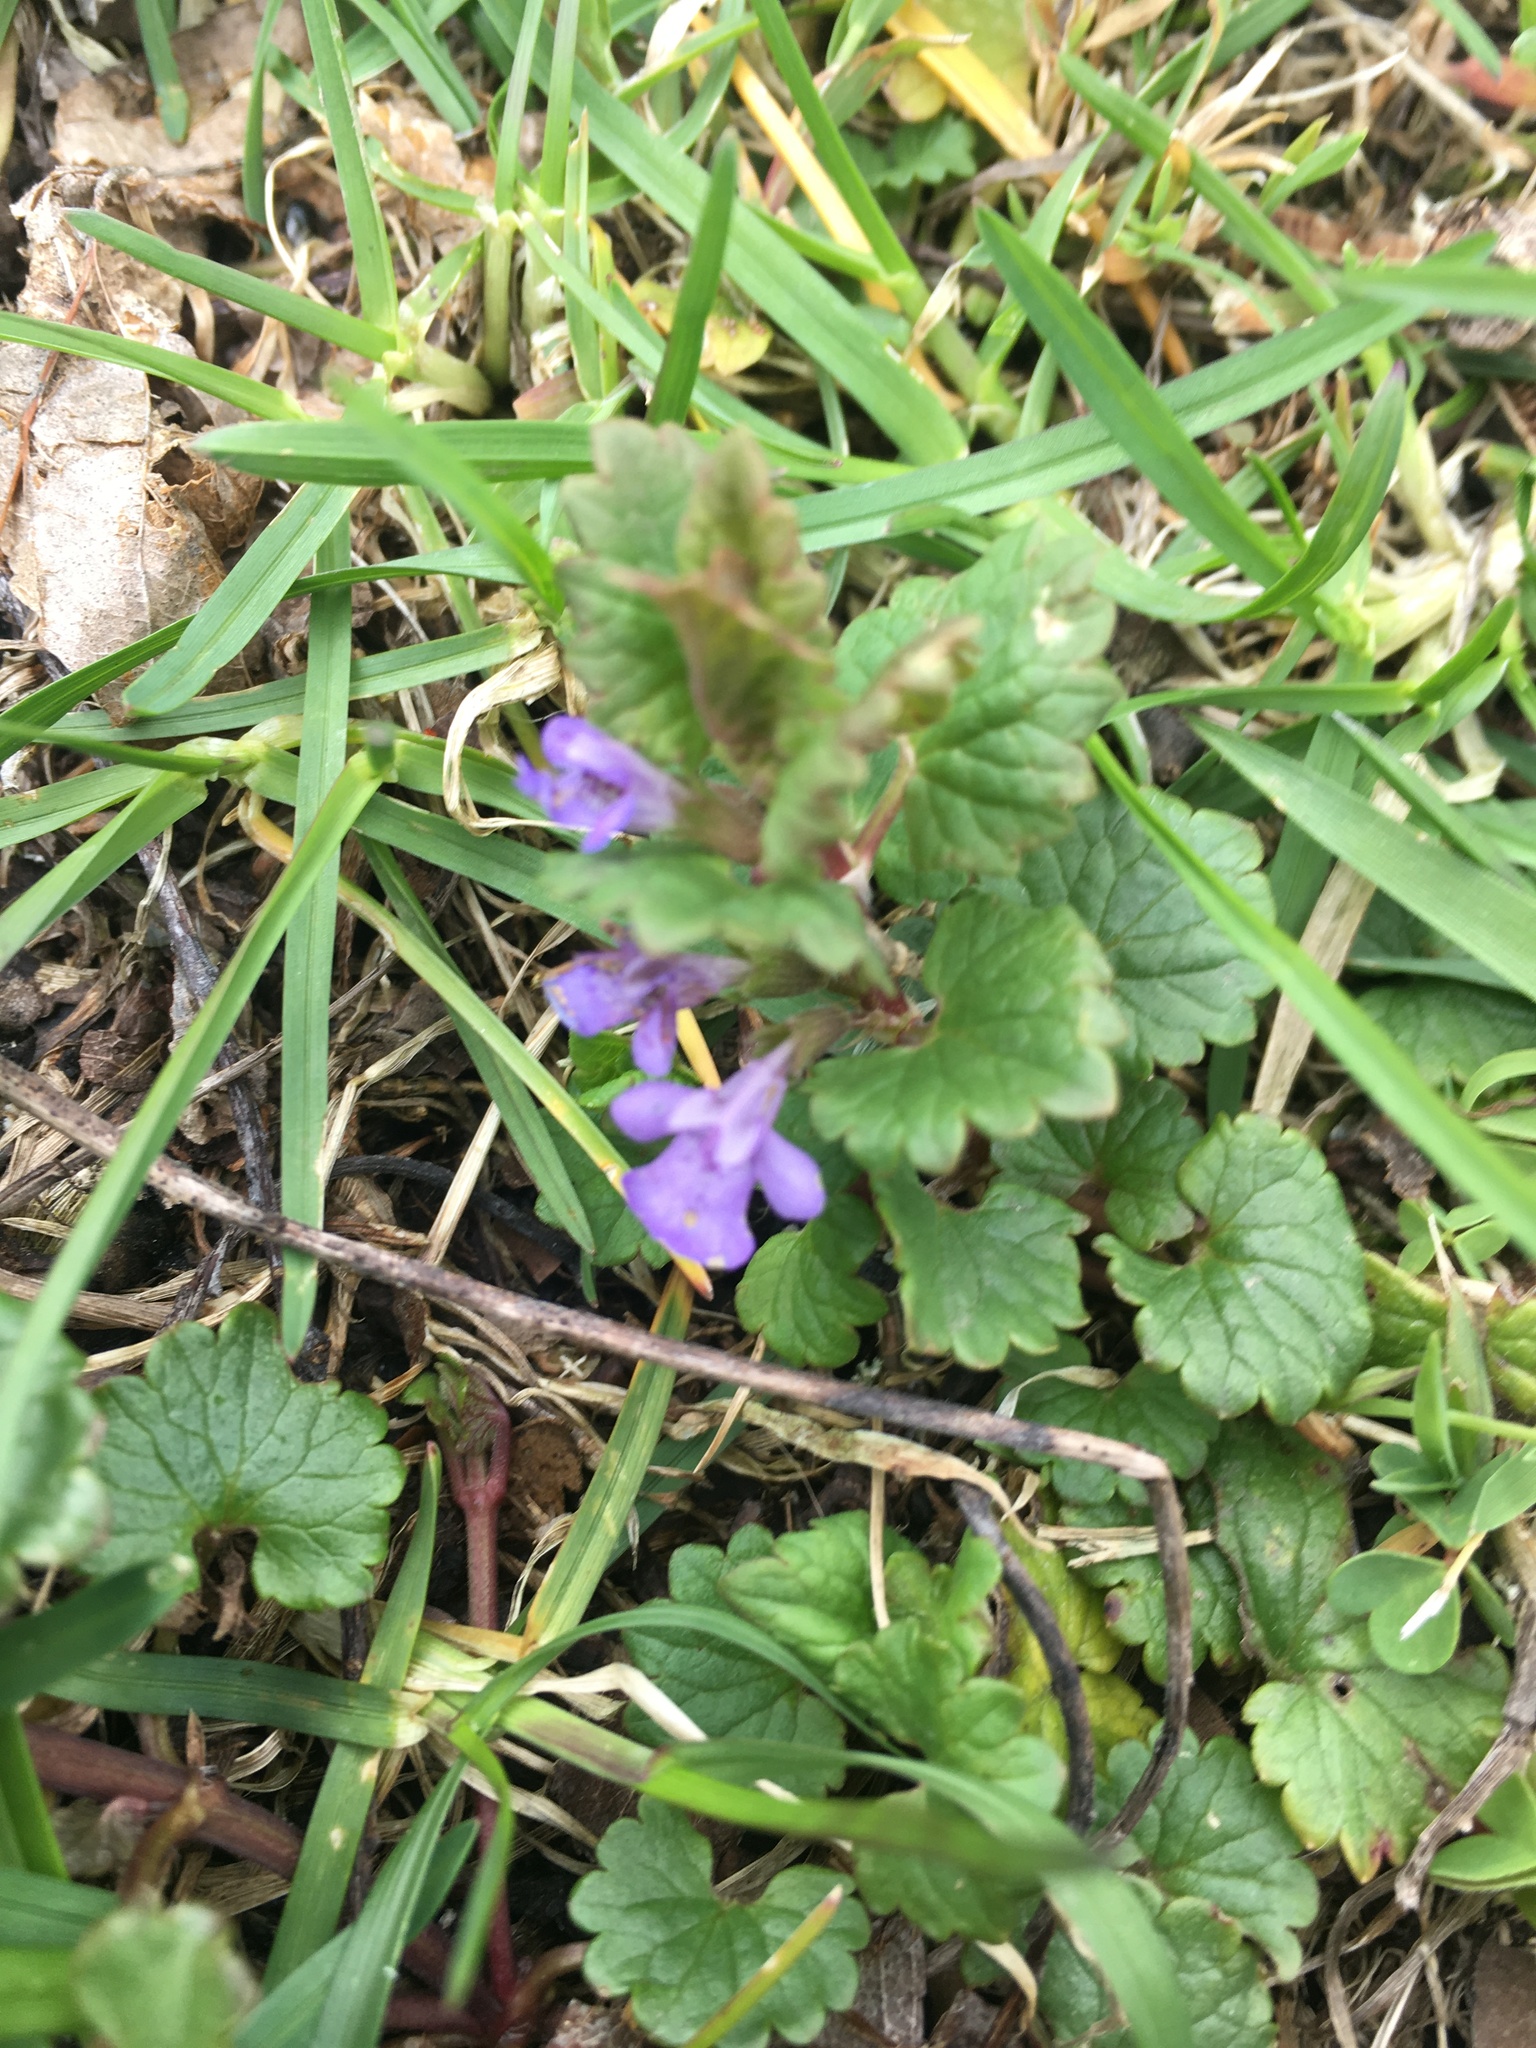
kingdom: Plantae
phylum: Tracheophyta
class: Magnoliopsida
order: Lamiales
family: Lamiaceae
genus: Glechoma
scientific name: Glechoma hederacea
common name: Ground ivy
